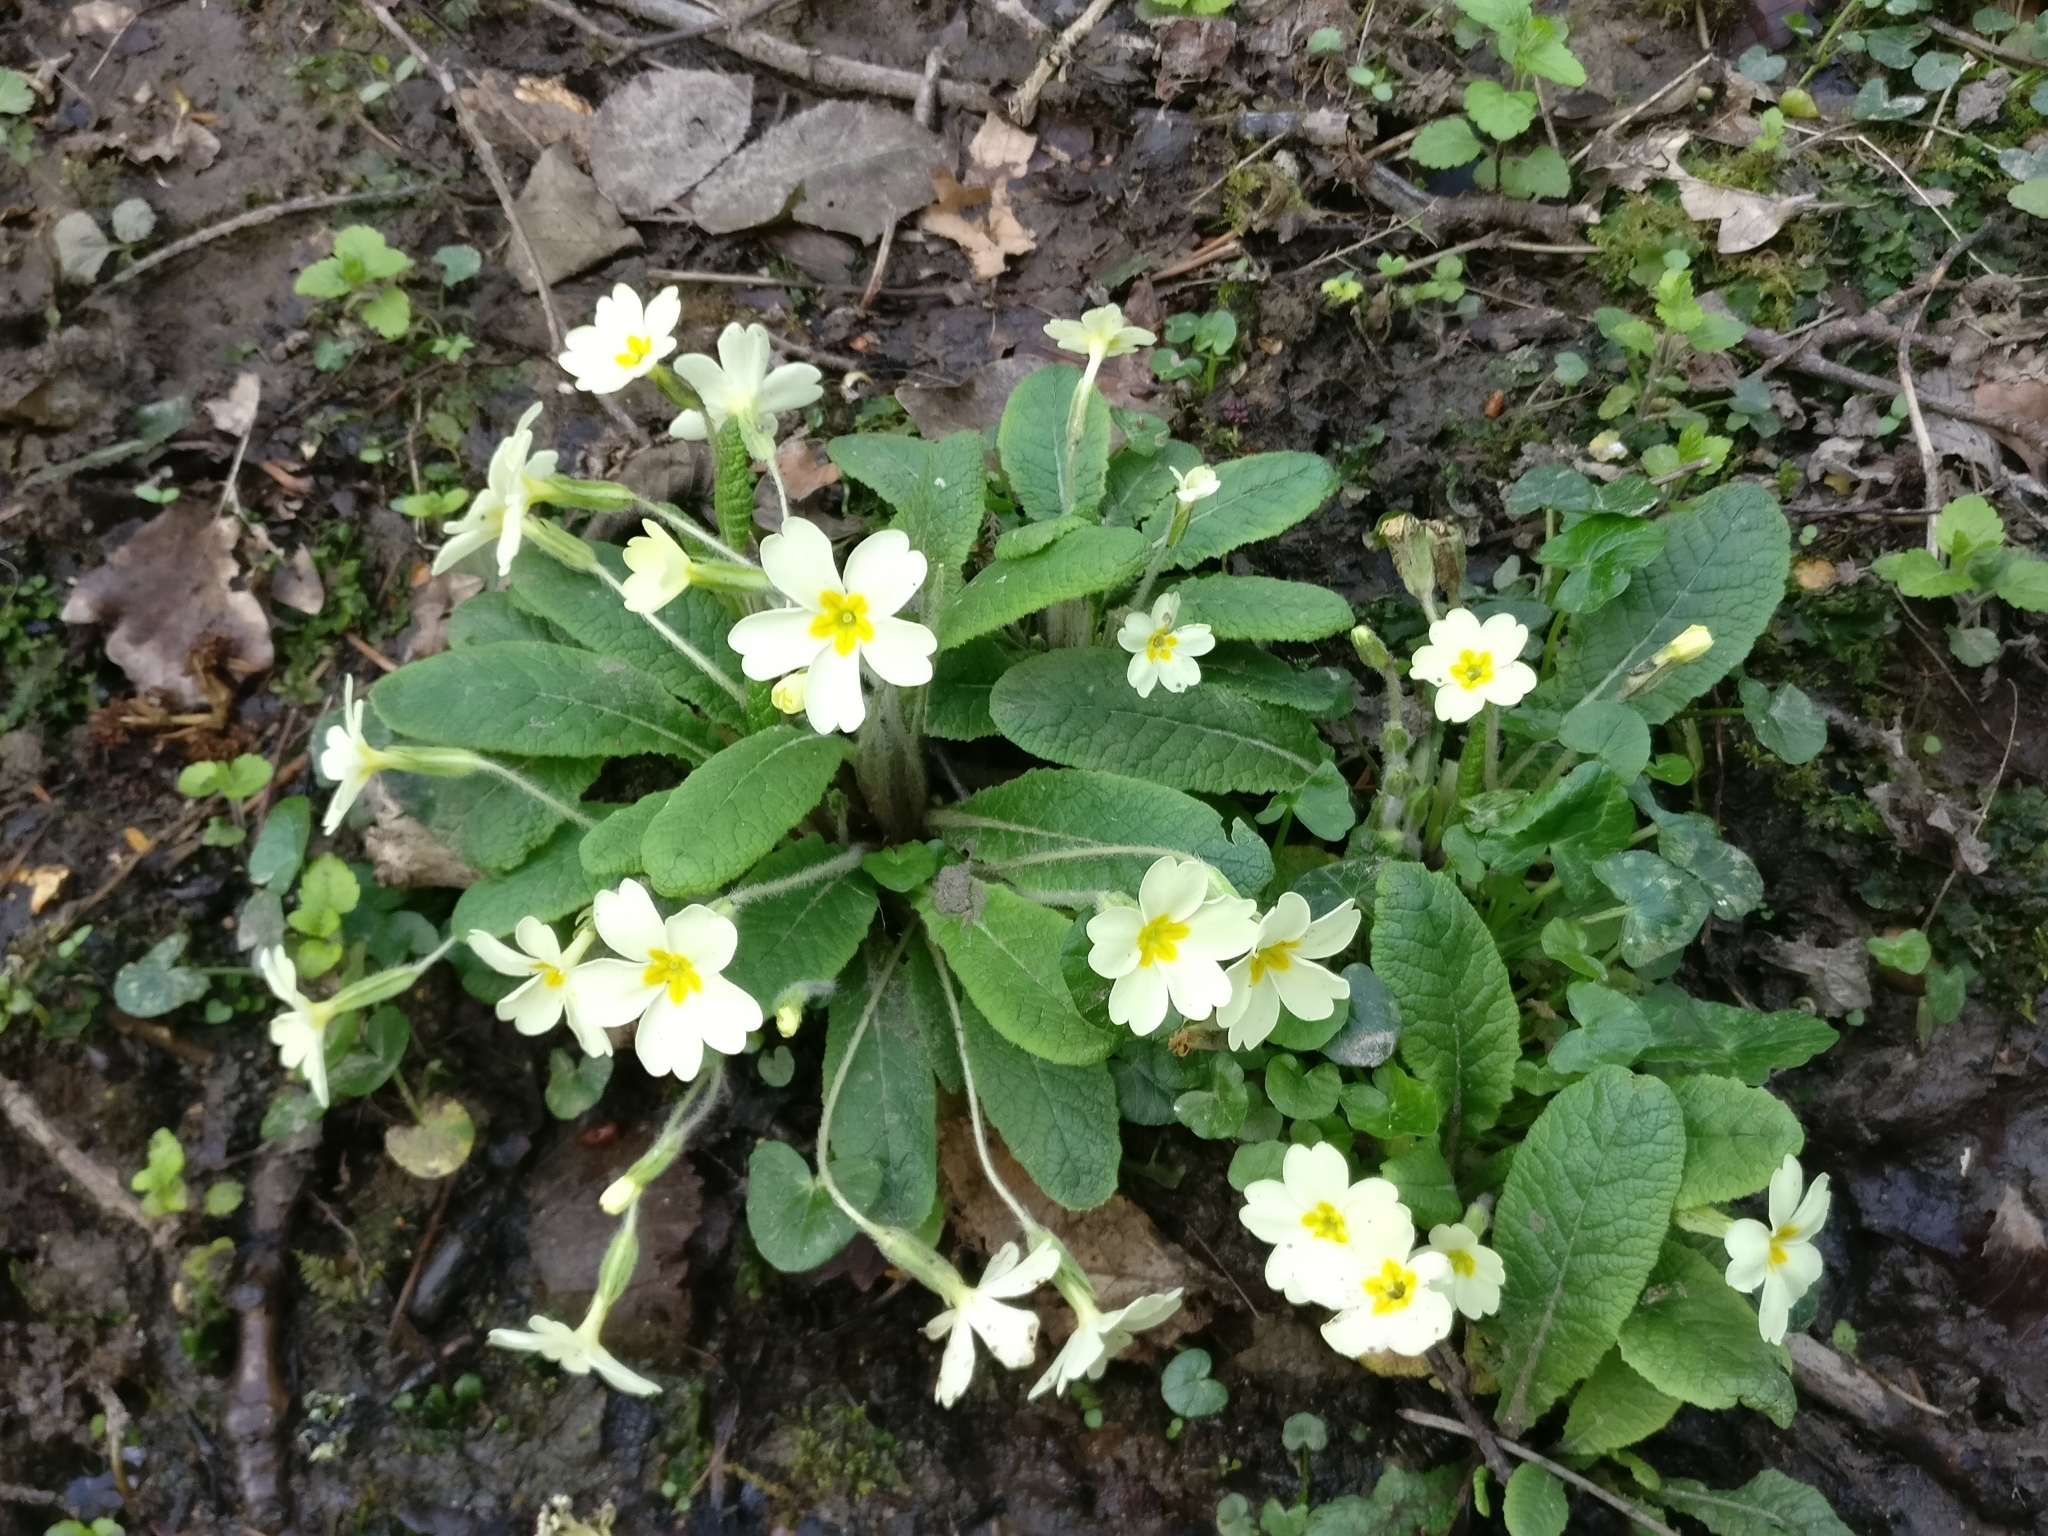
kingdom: Plantae
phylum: Tracheophyta
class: Magnoliopsida
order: Ericales
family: Primulaceae
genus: Primula
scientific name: Primula vulgaris
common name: Primrose
